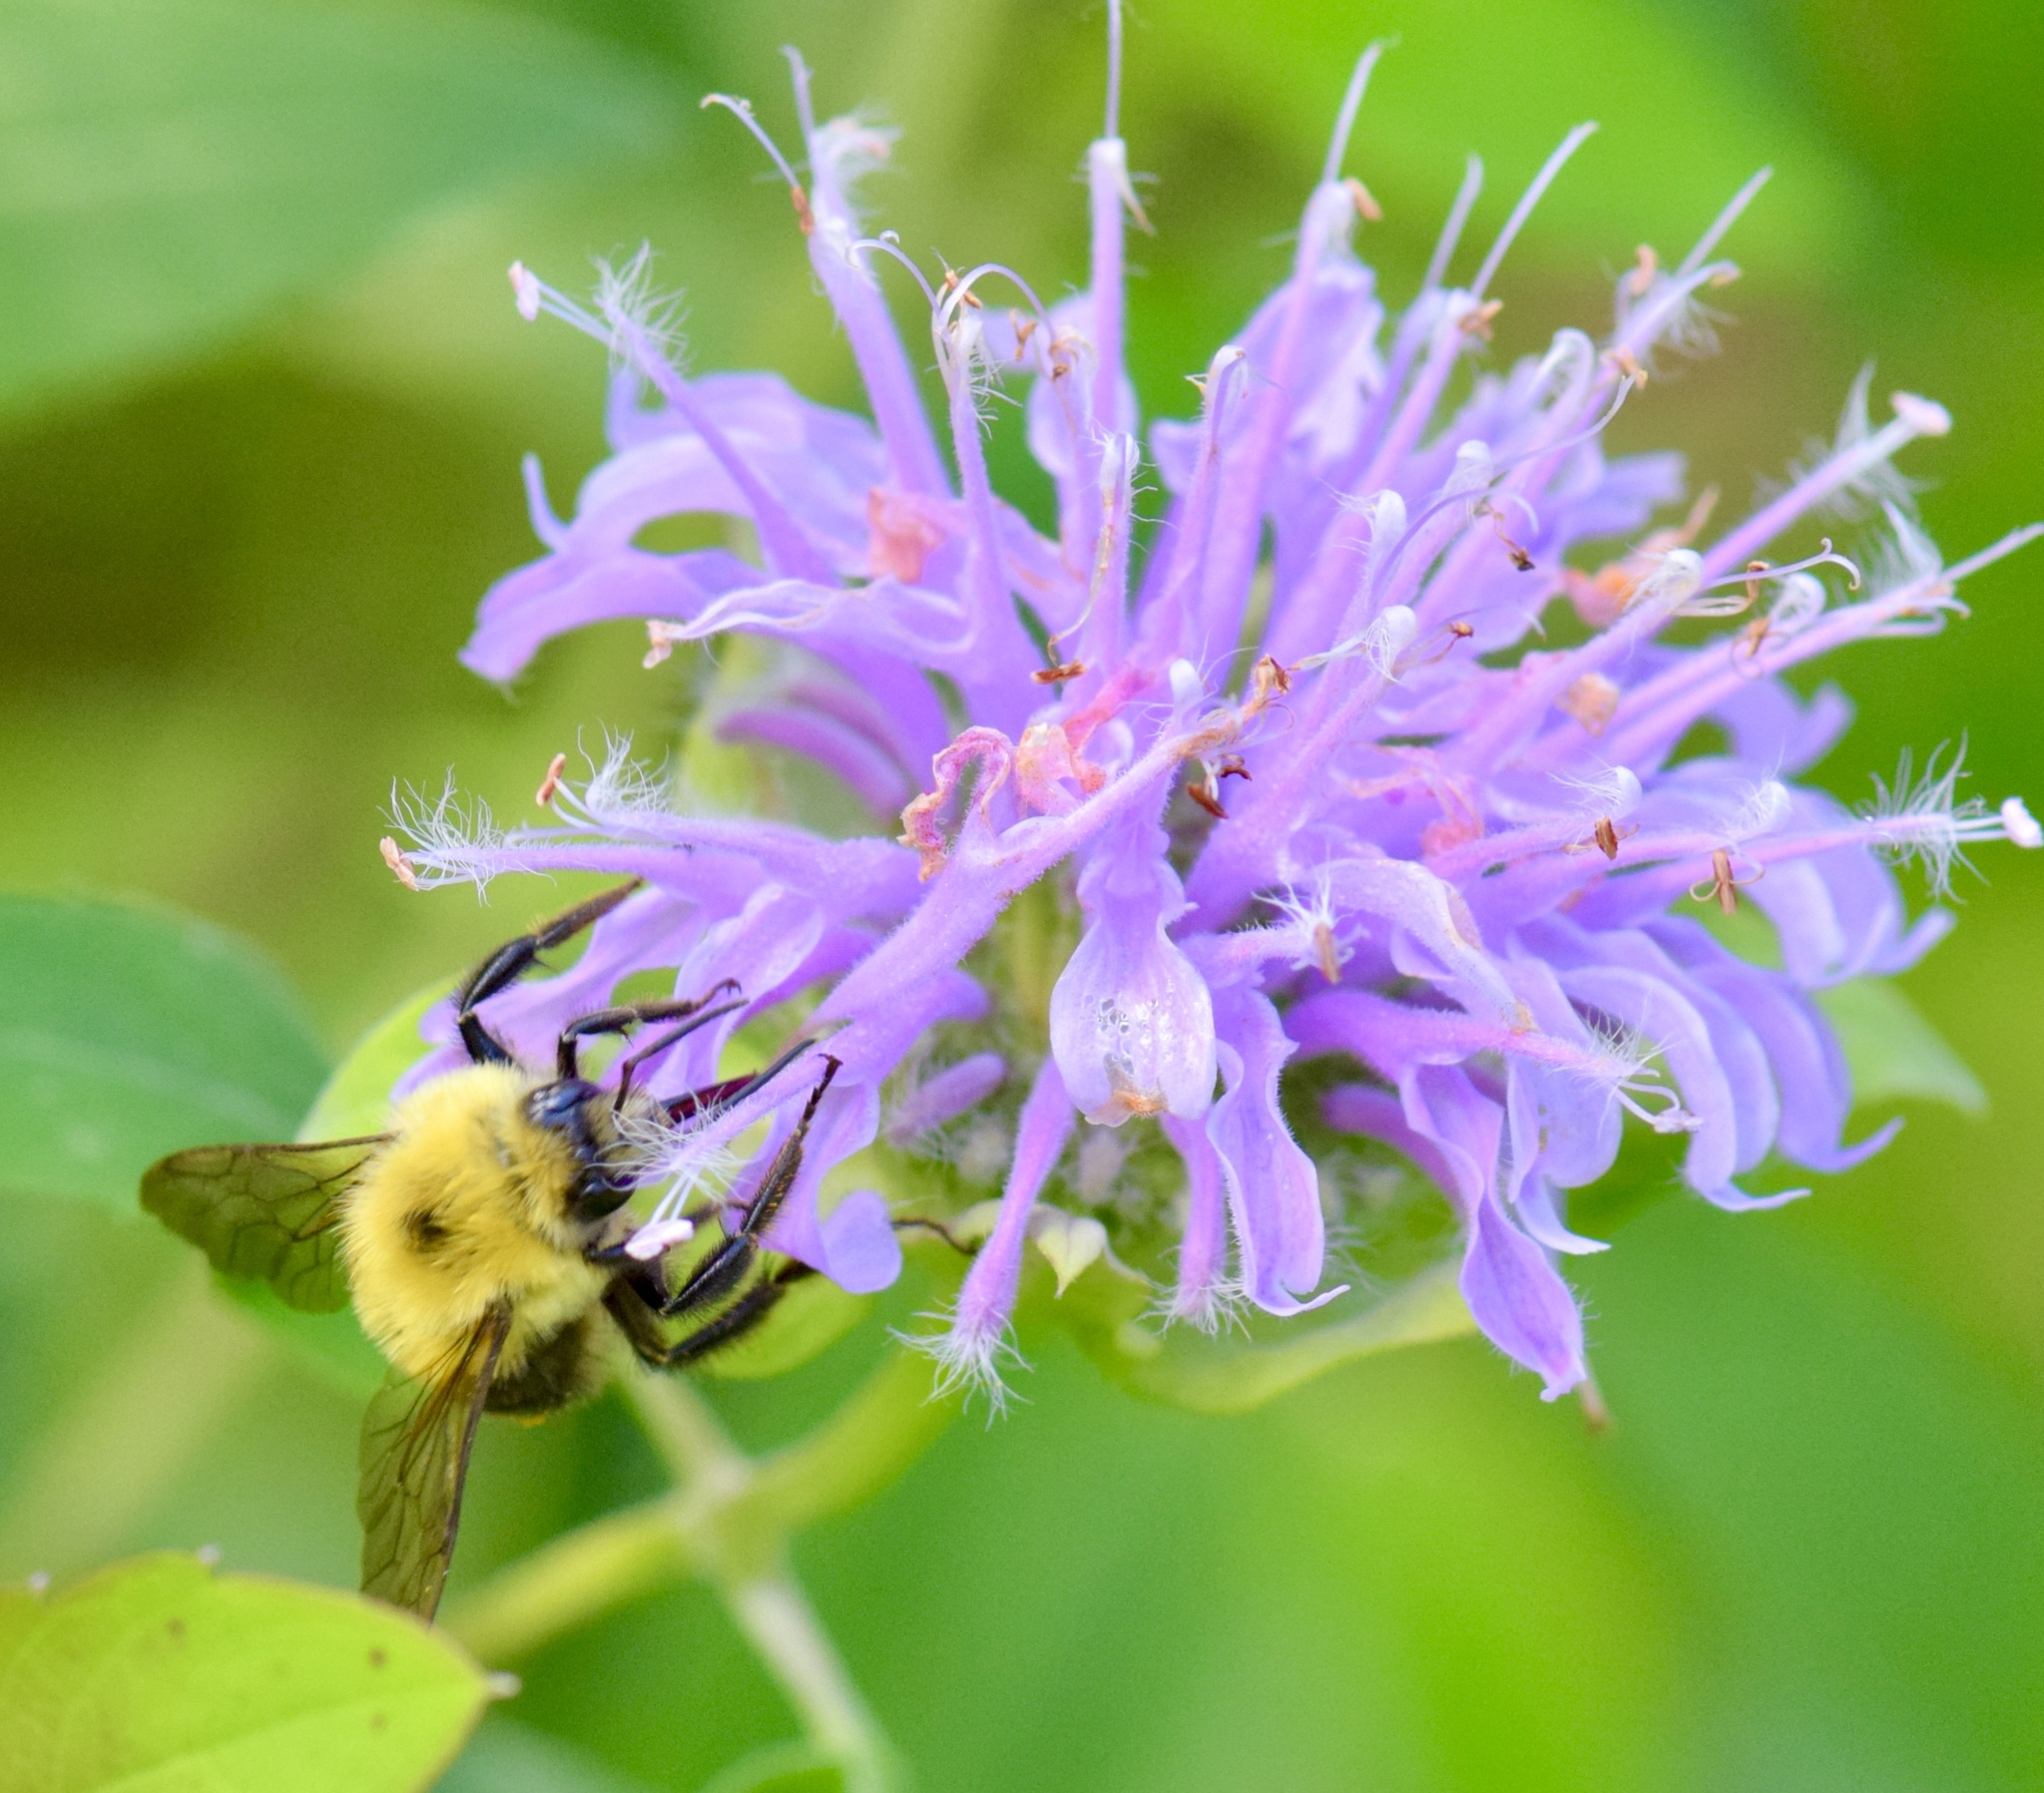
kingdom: Animalia
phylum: Arthropoda
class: Insecta
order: Hymenoptera
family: Apidae
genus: Bombus
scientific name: Bombus bimaculatus
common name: Two-spotted bumble bee
